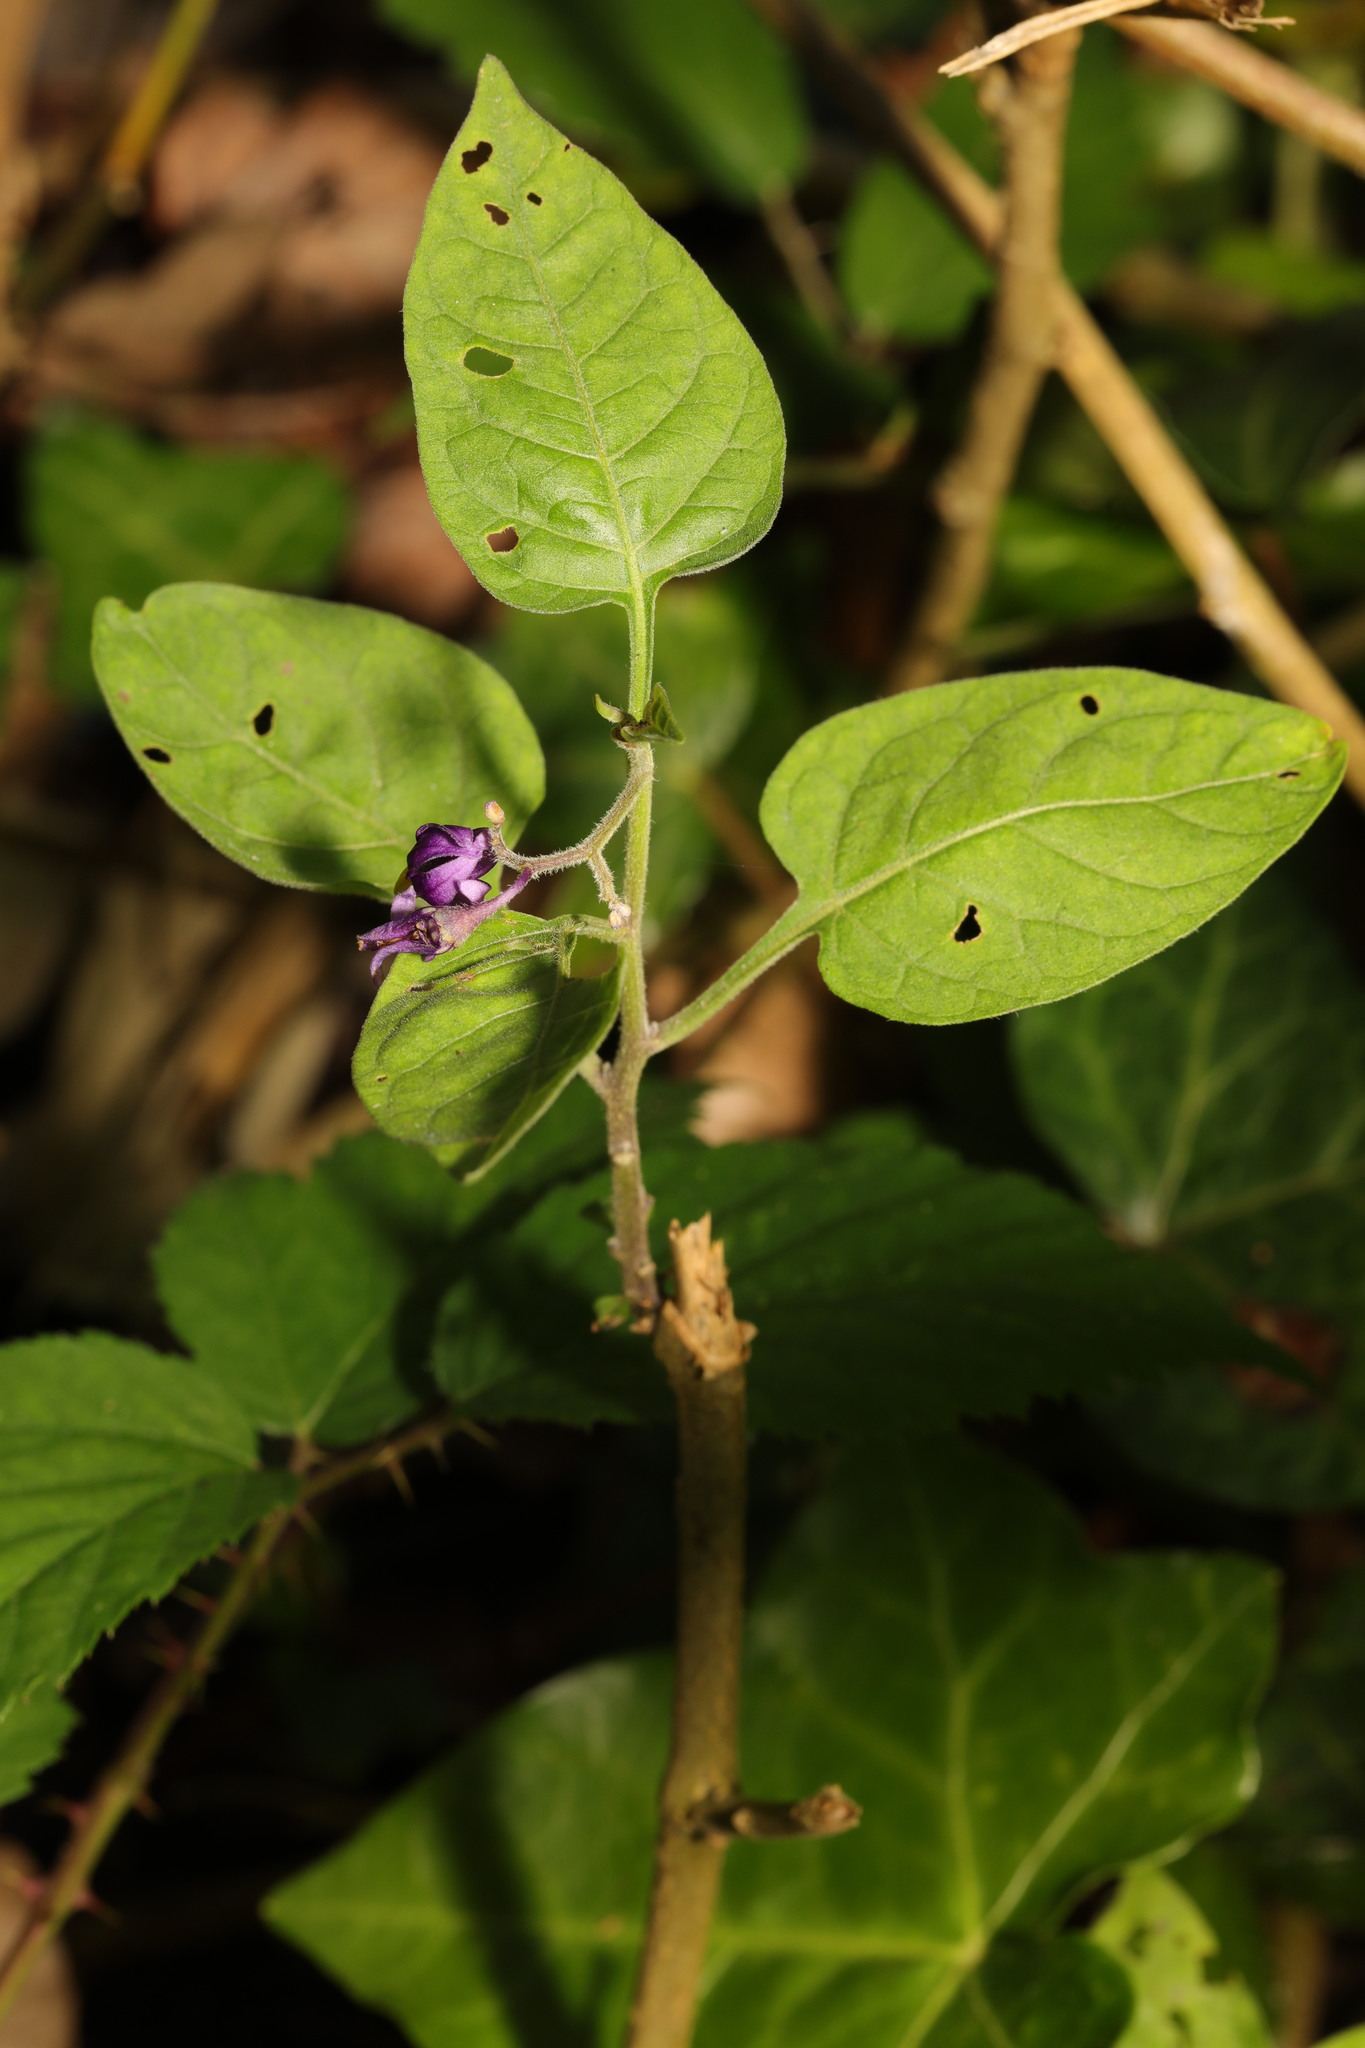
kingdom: Plantae
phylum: Tracheophyta
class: Magnoliopsida
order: Solanales
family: Solanaceae
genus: Solanum
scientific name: Solanum dulcamara
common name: Climbing nightshade
